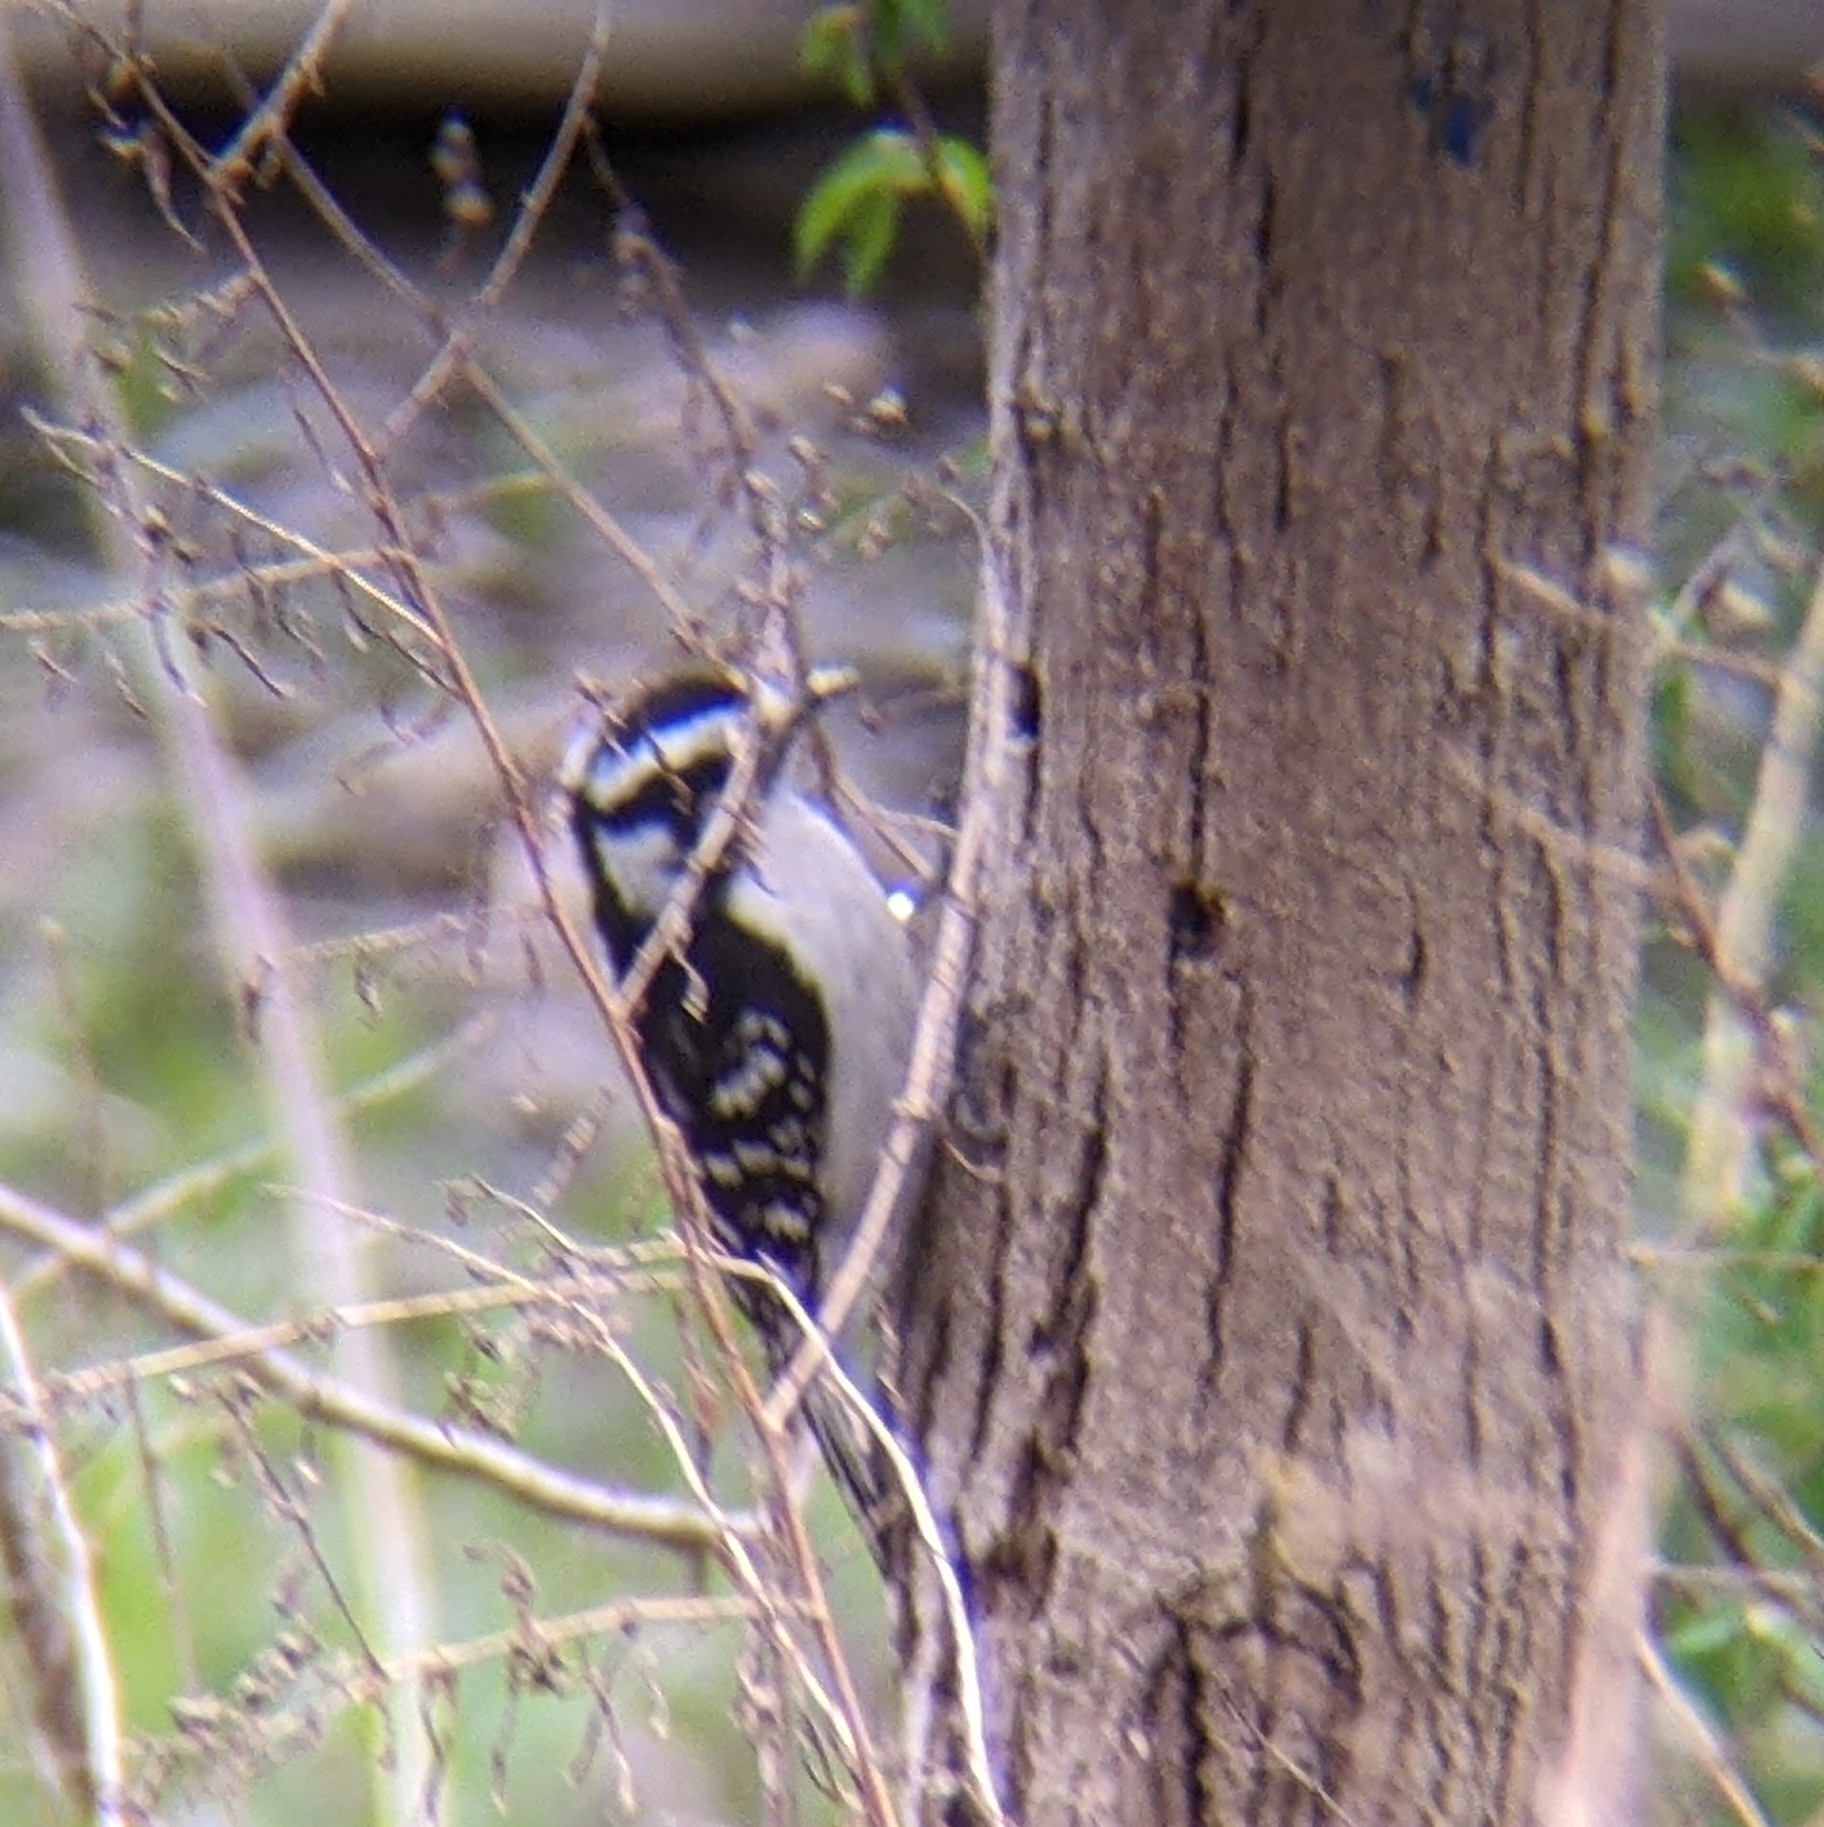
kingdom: Animalia
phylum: Chordata
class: Aves
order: Piciformes
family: Picidae
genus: Dryobates
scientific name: Dryobates pubescens
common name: Downy woodpecker
